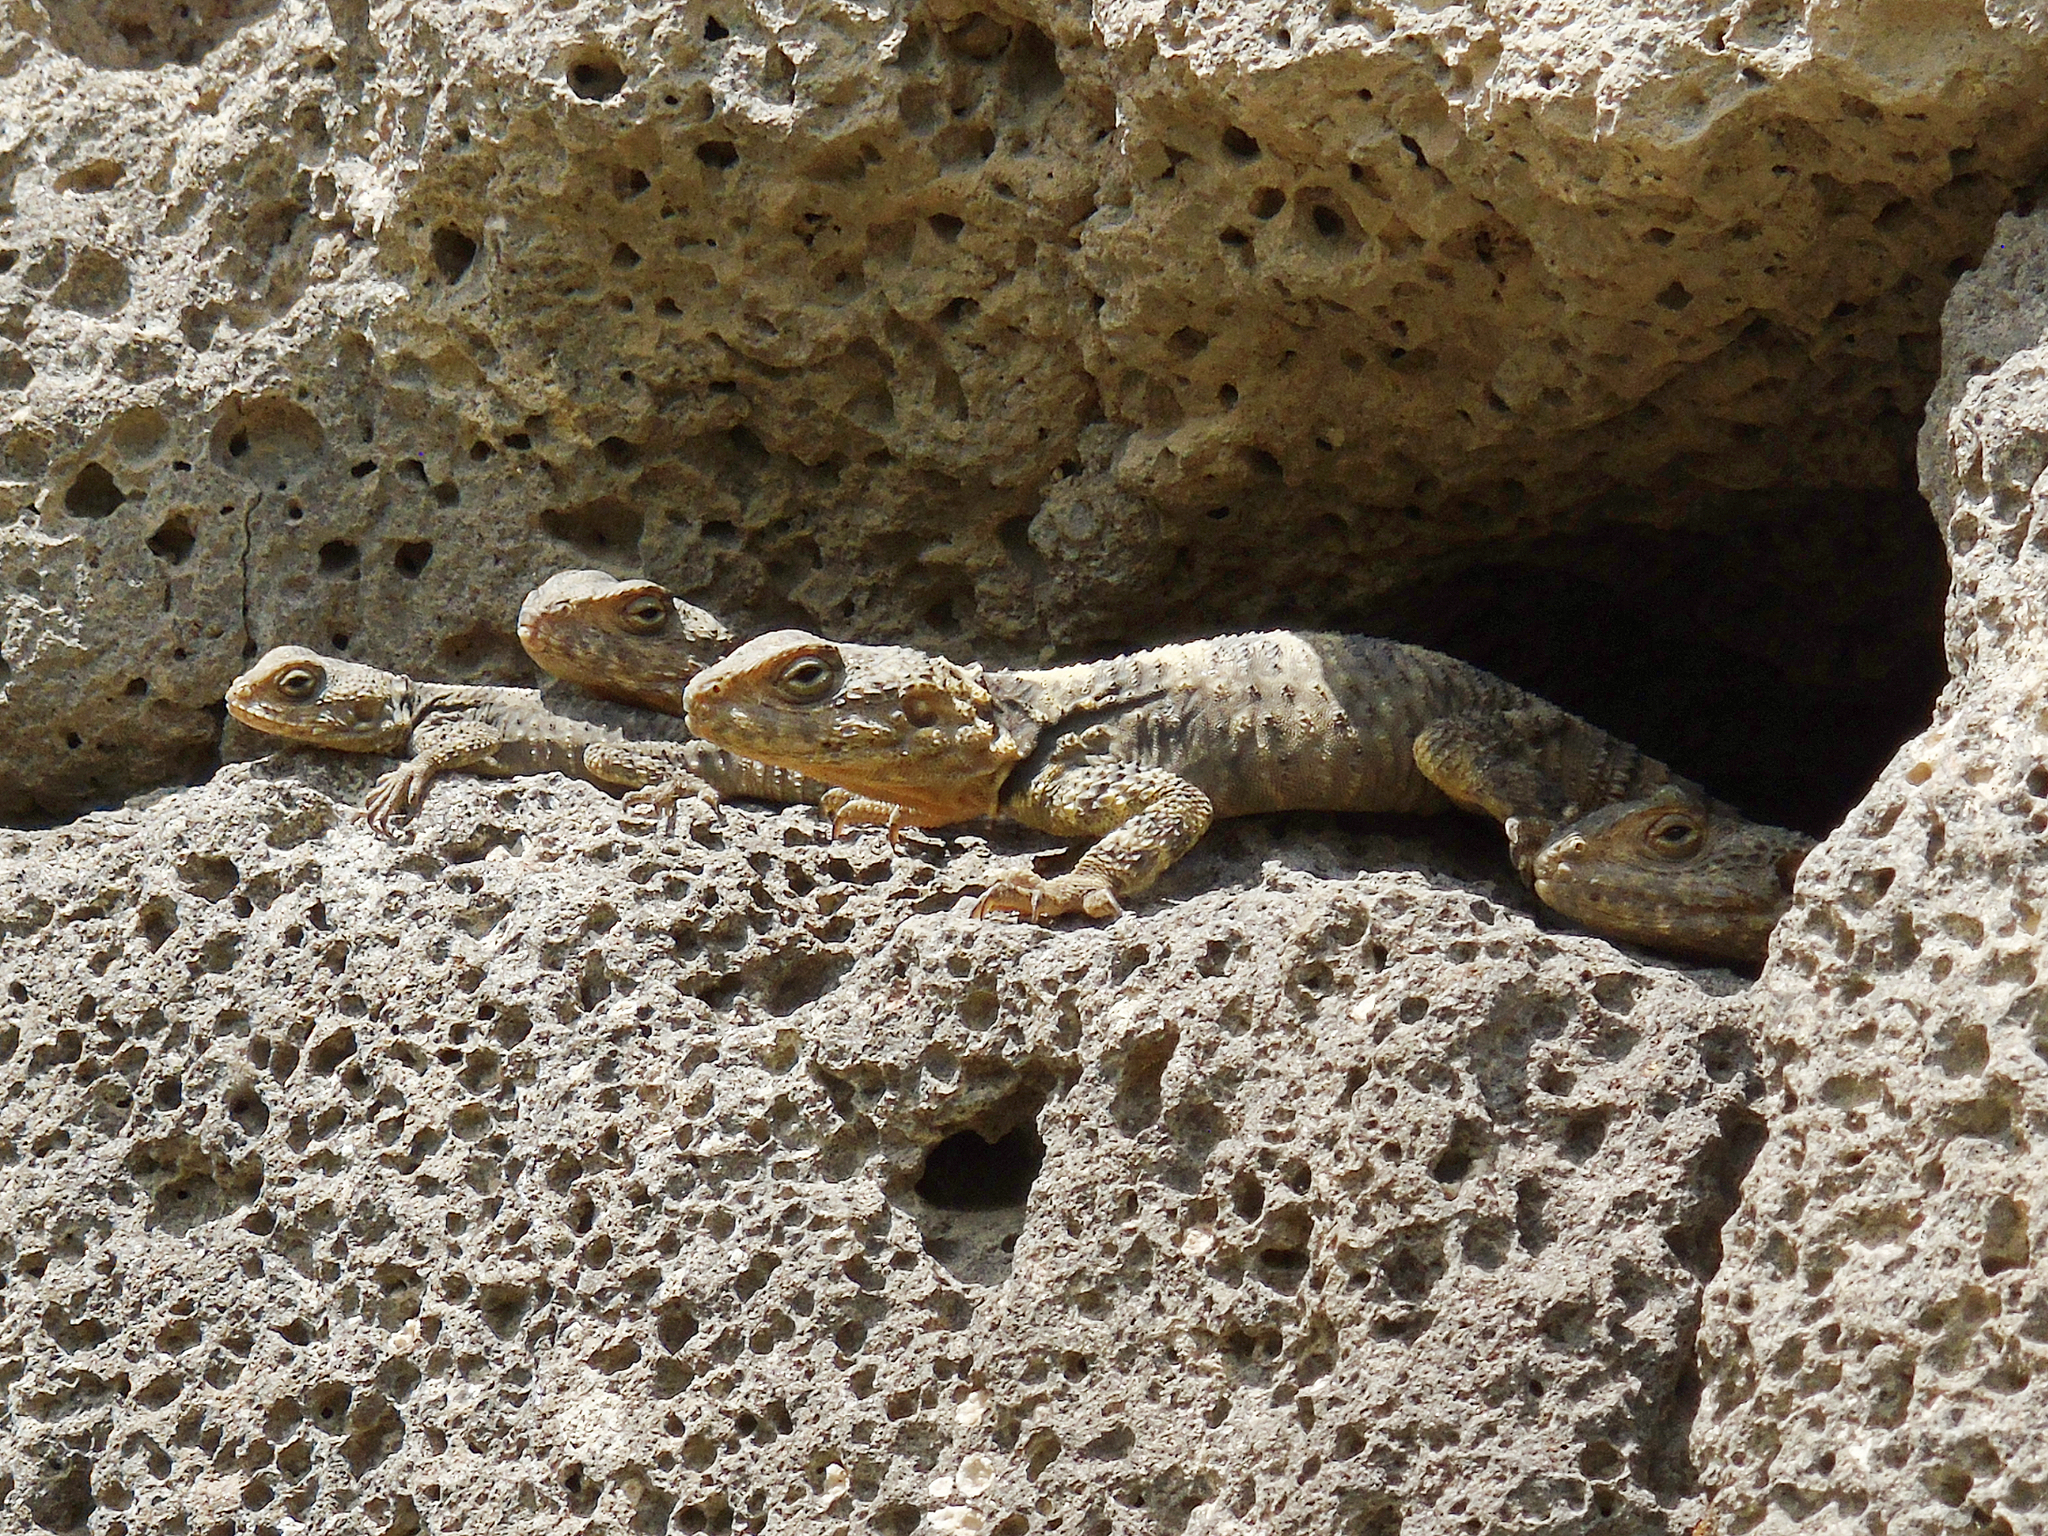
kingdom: Animalia
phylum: Chordata
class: Squamata
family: Agamidae
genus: Stellagama
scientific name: Stellagama stellio
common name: Starred agama
